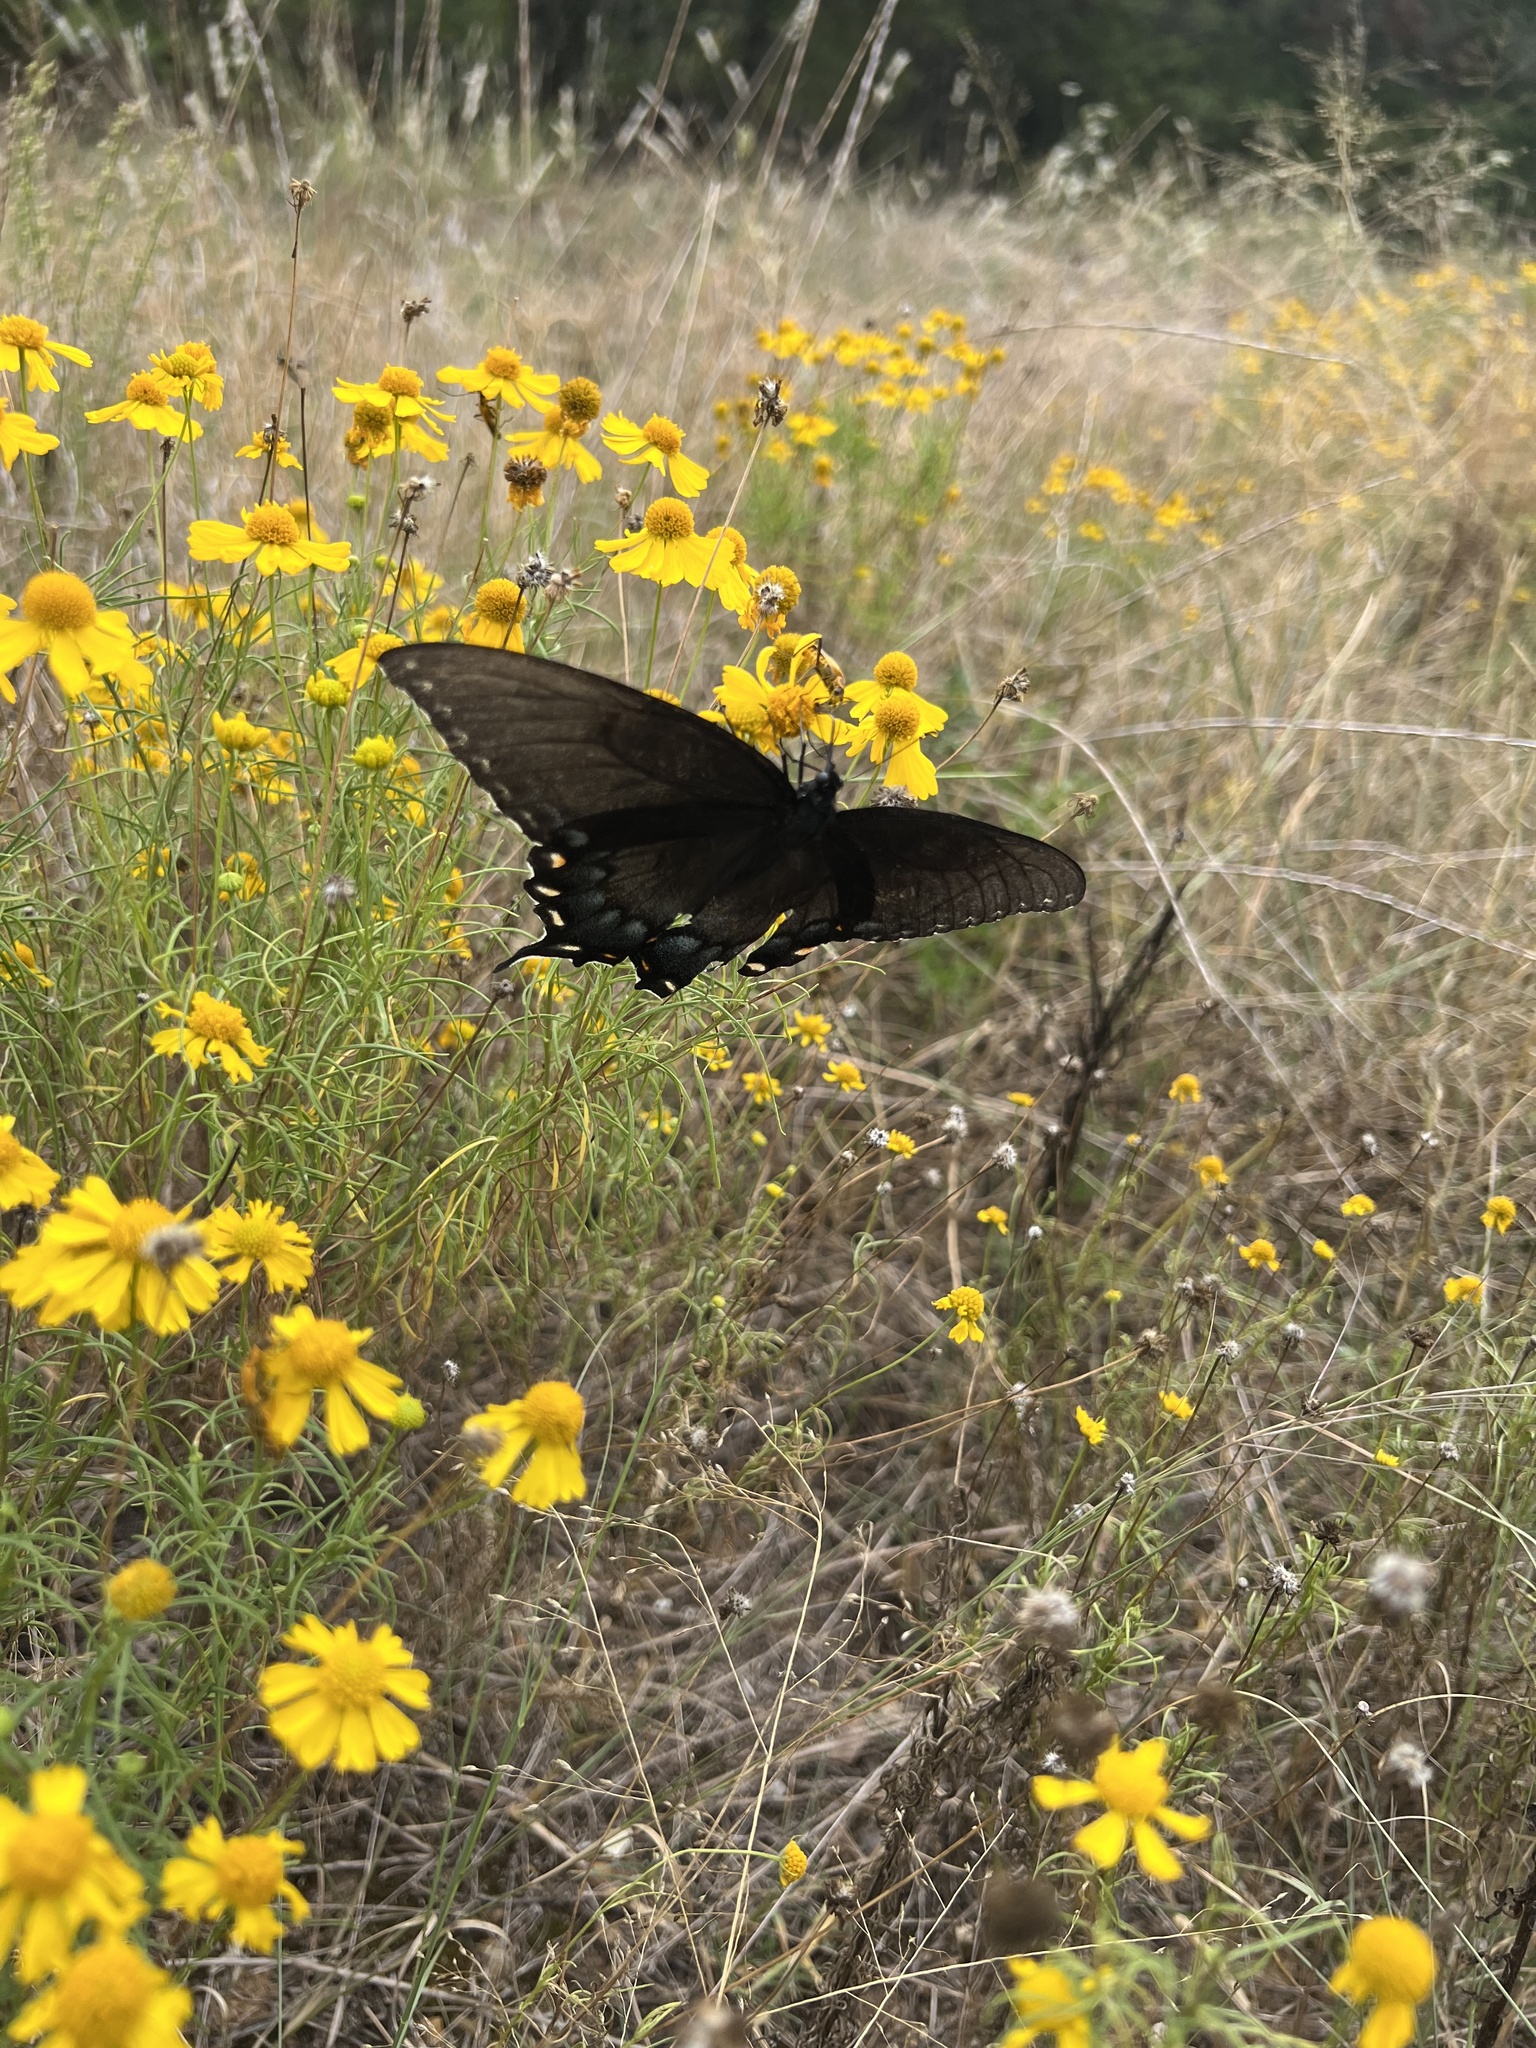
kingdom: Animalia
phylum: Arthropoda
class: Insecta
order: Lepidoptera
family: Papilionidae
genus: Papilio
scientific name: Papilio glaucus
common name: Tiger swallowtail
